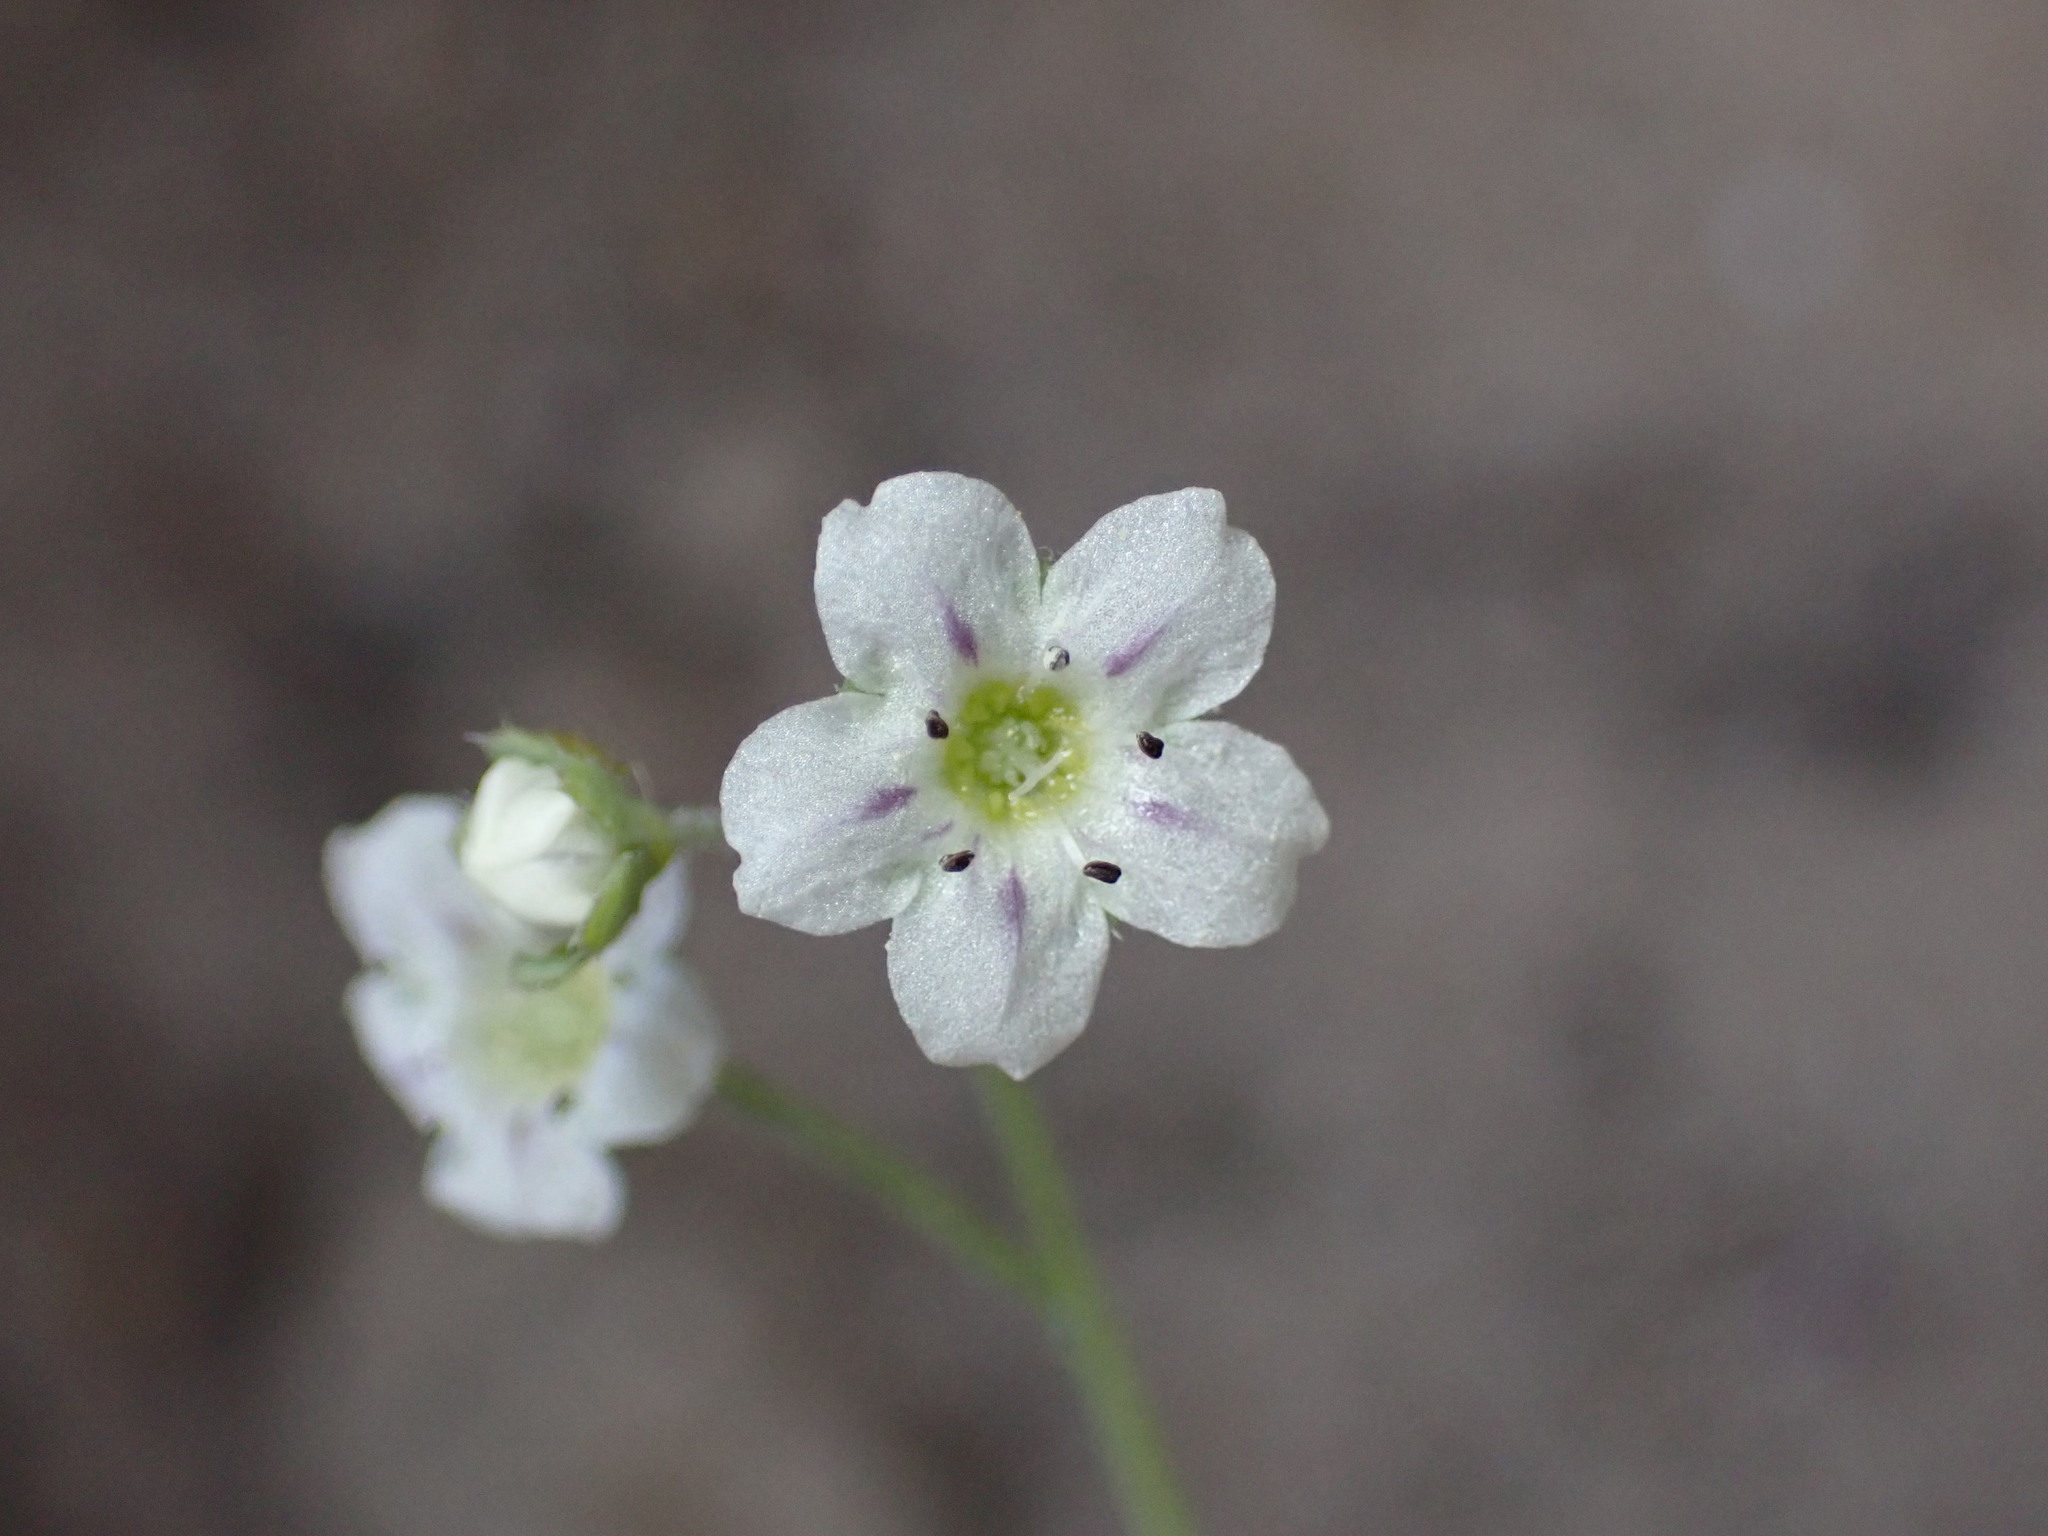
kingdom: Plantae
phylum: Tracheophyta
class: Magnoliopsida
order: Boraginales
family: Hydrophyllaceae
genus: Pholistoma
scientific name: Pholistoma membranaceum
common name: White fiesta-flower
